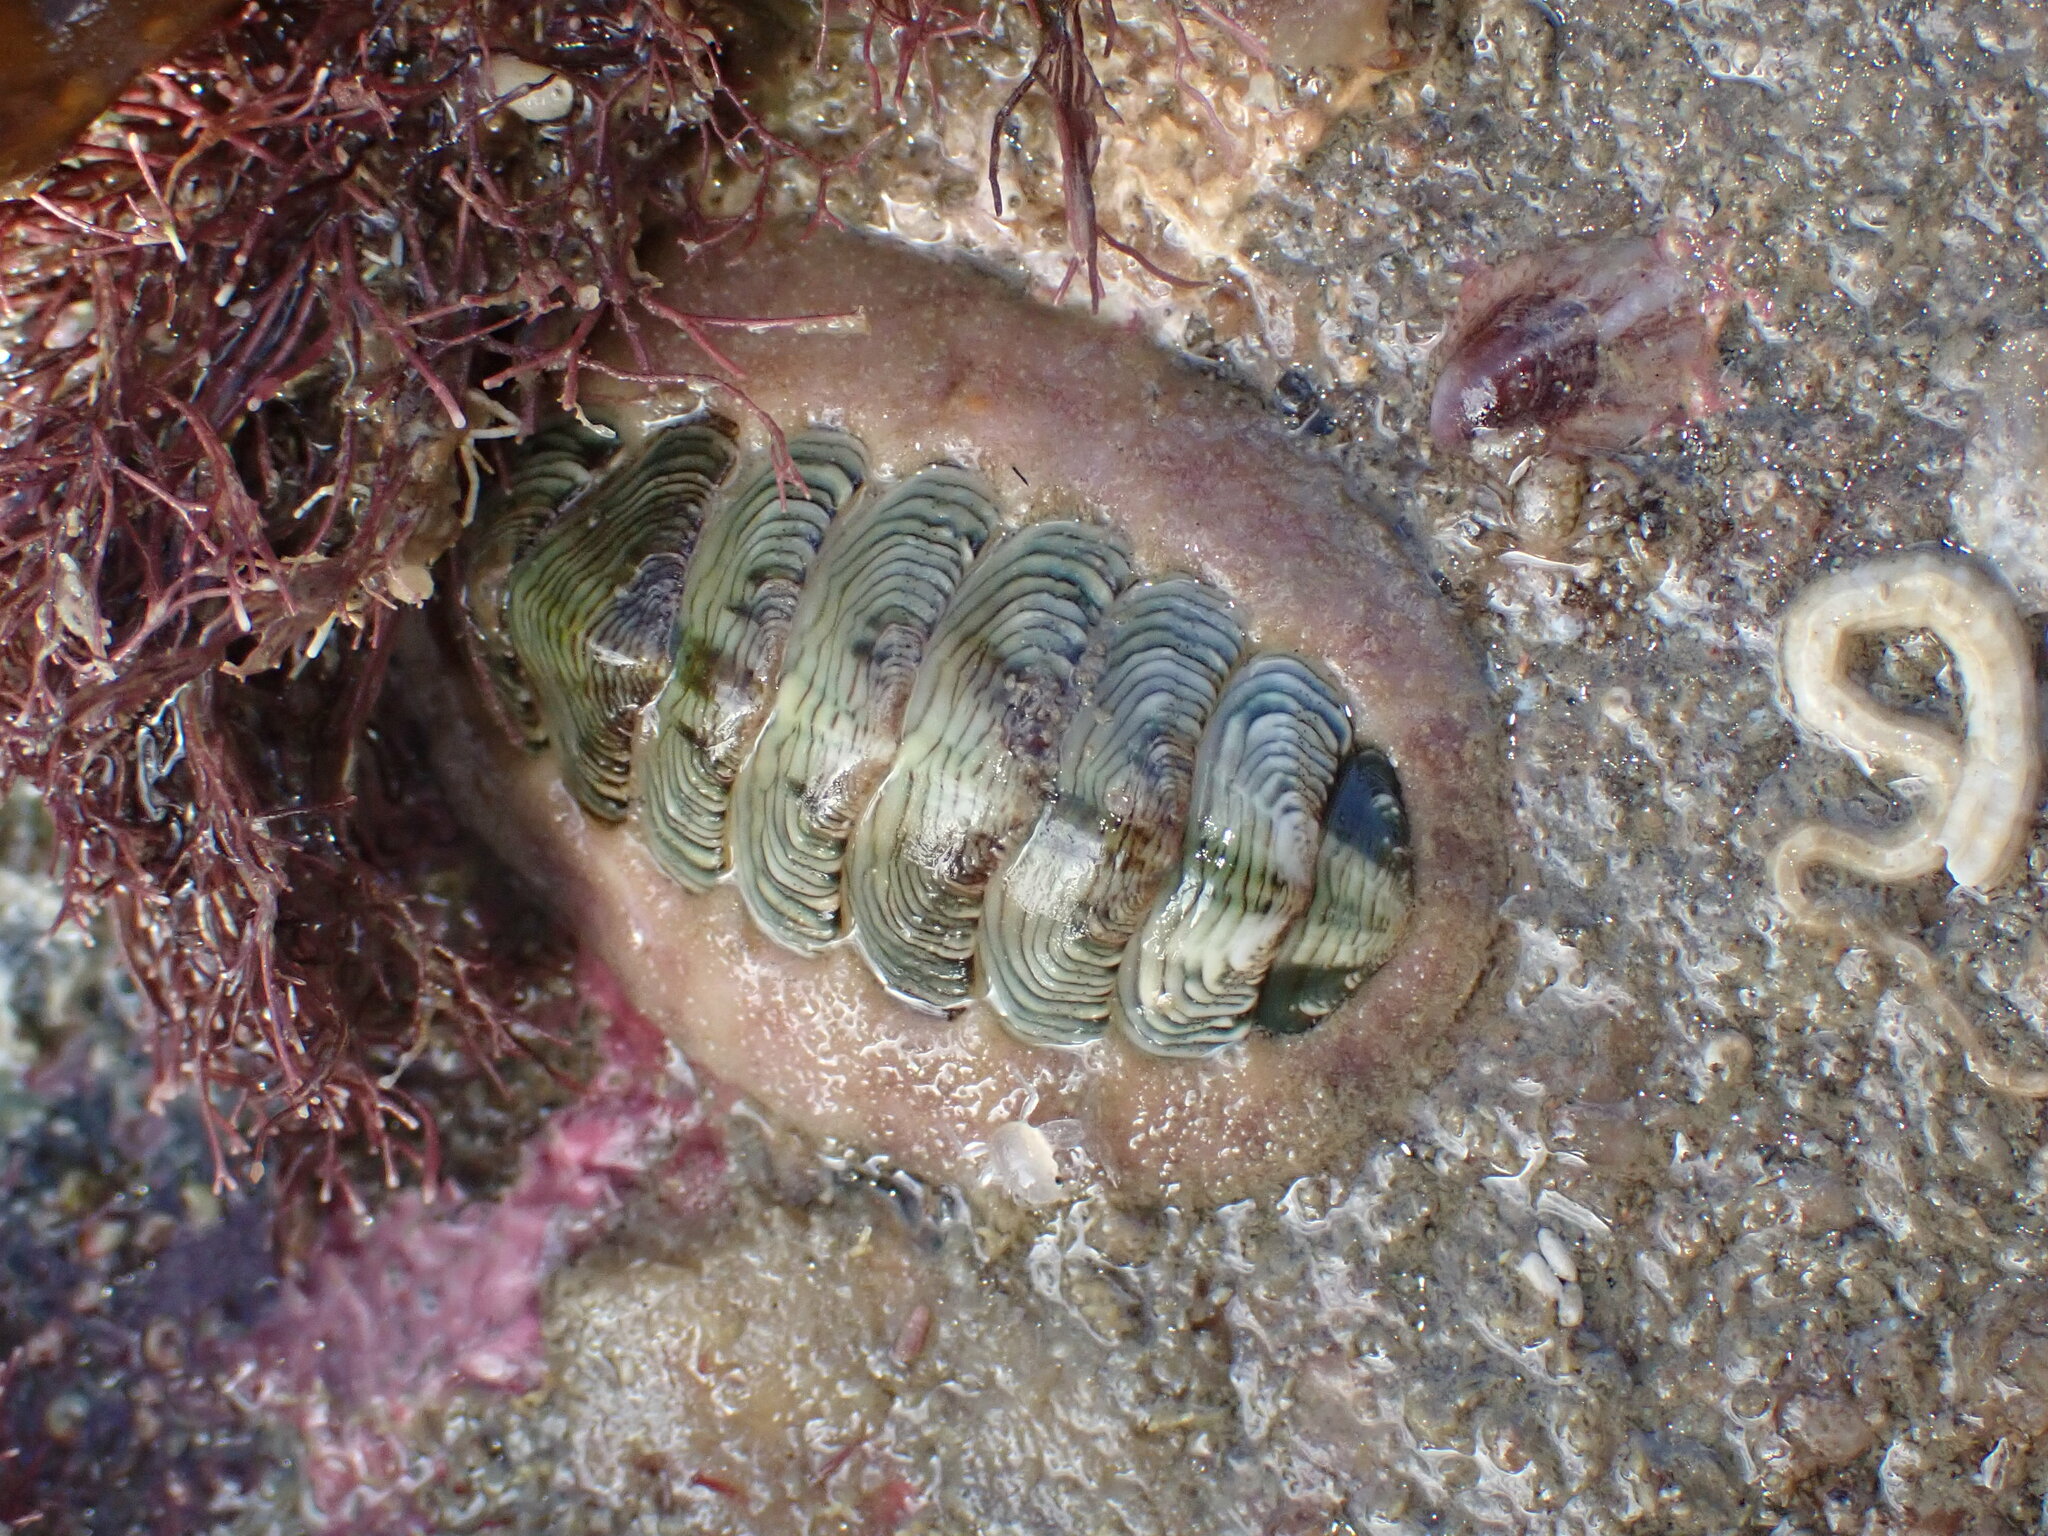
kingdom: Animalia
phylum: Mollusca
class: Polyplacophora
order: Chitonida
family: Chitonidae
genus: Onithochiton
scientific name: Onithochiton neglectus
